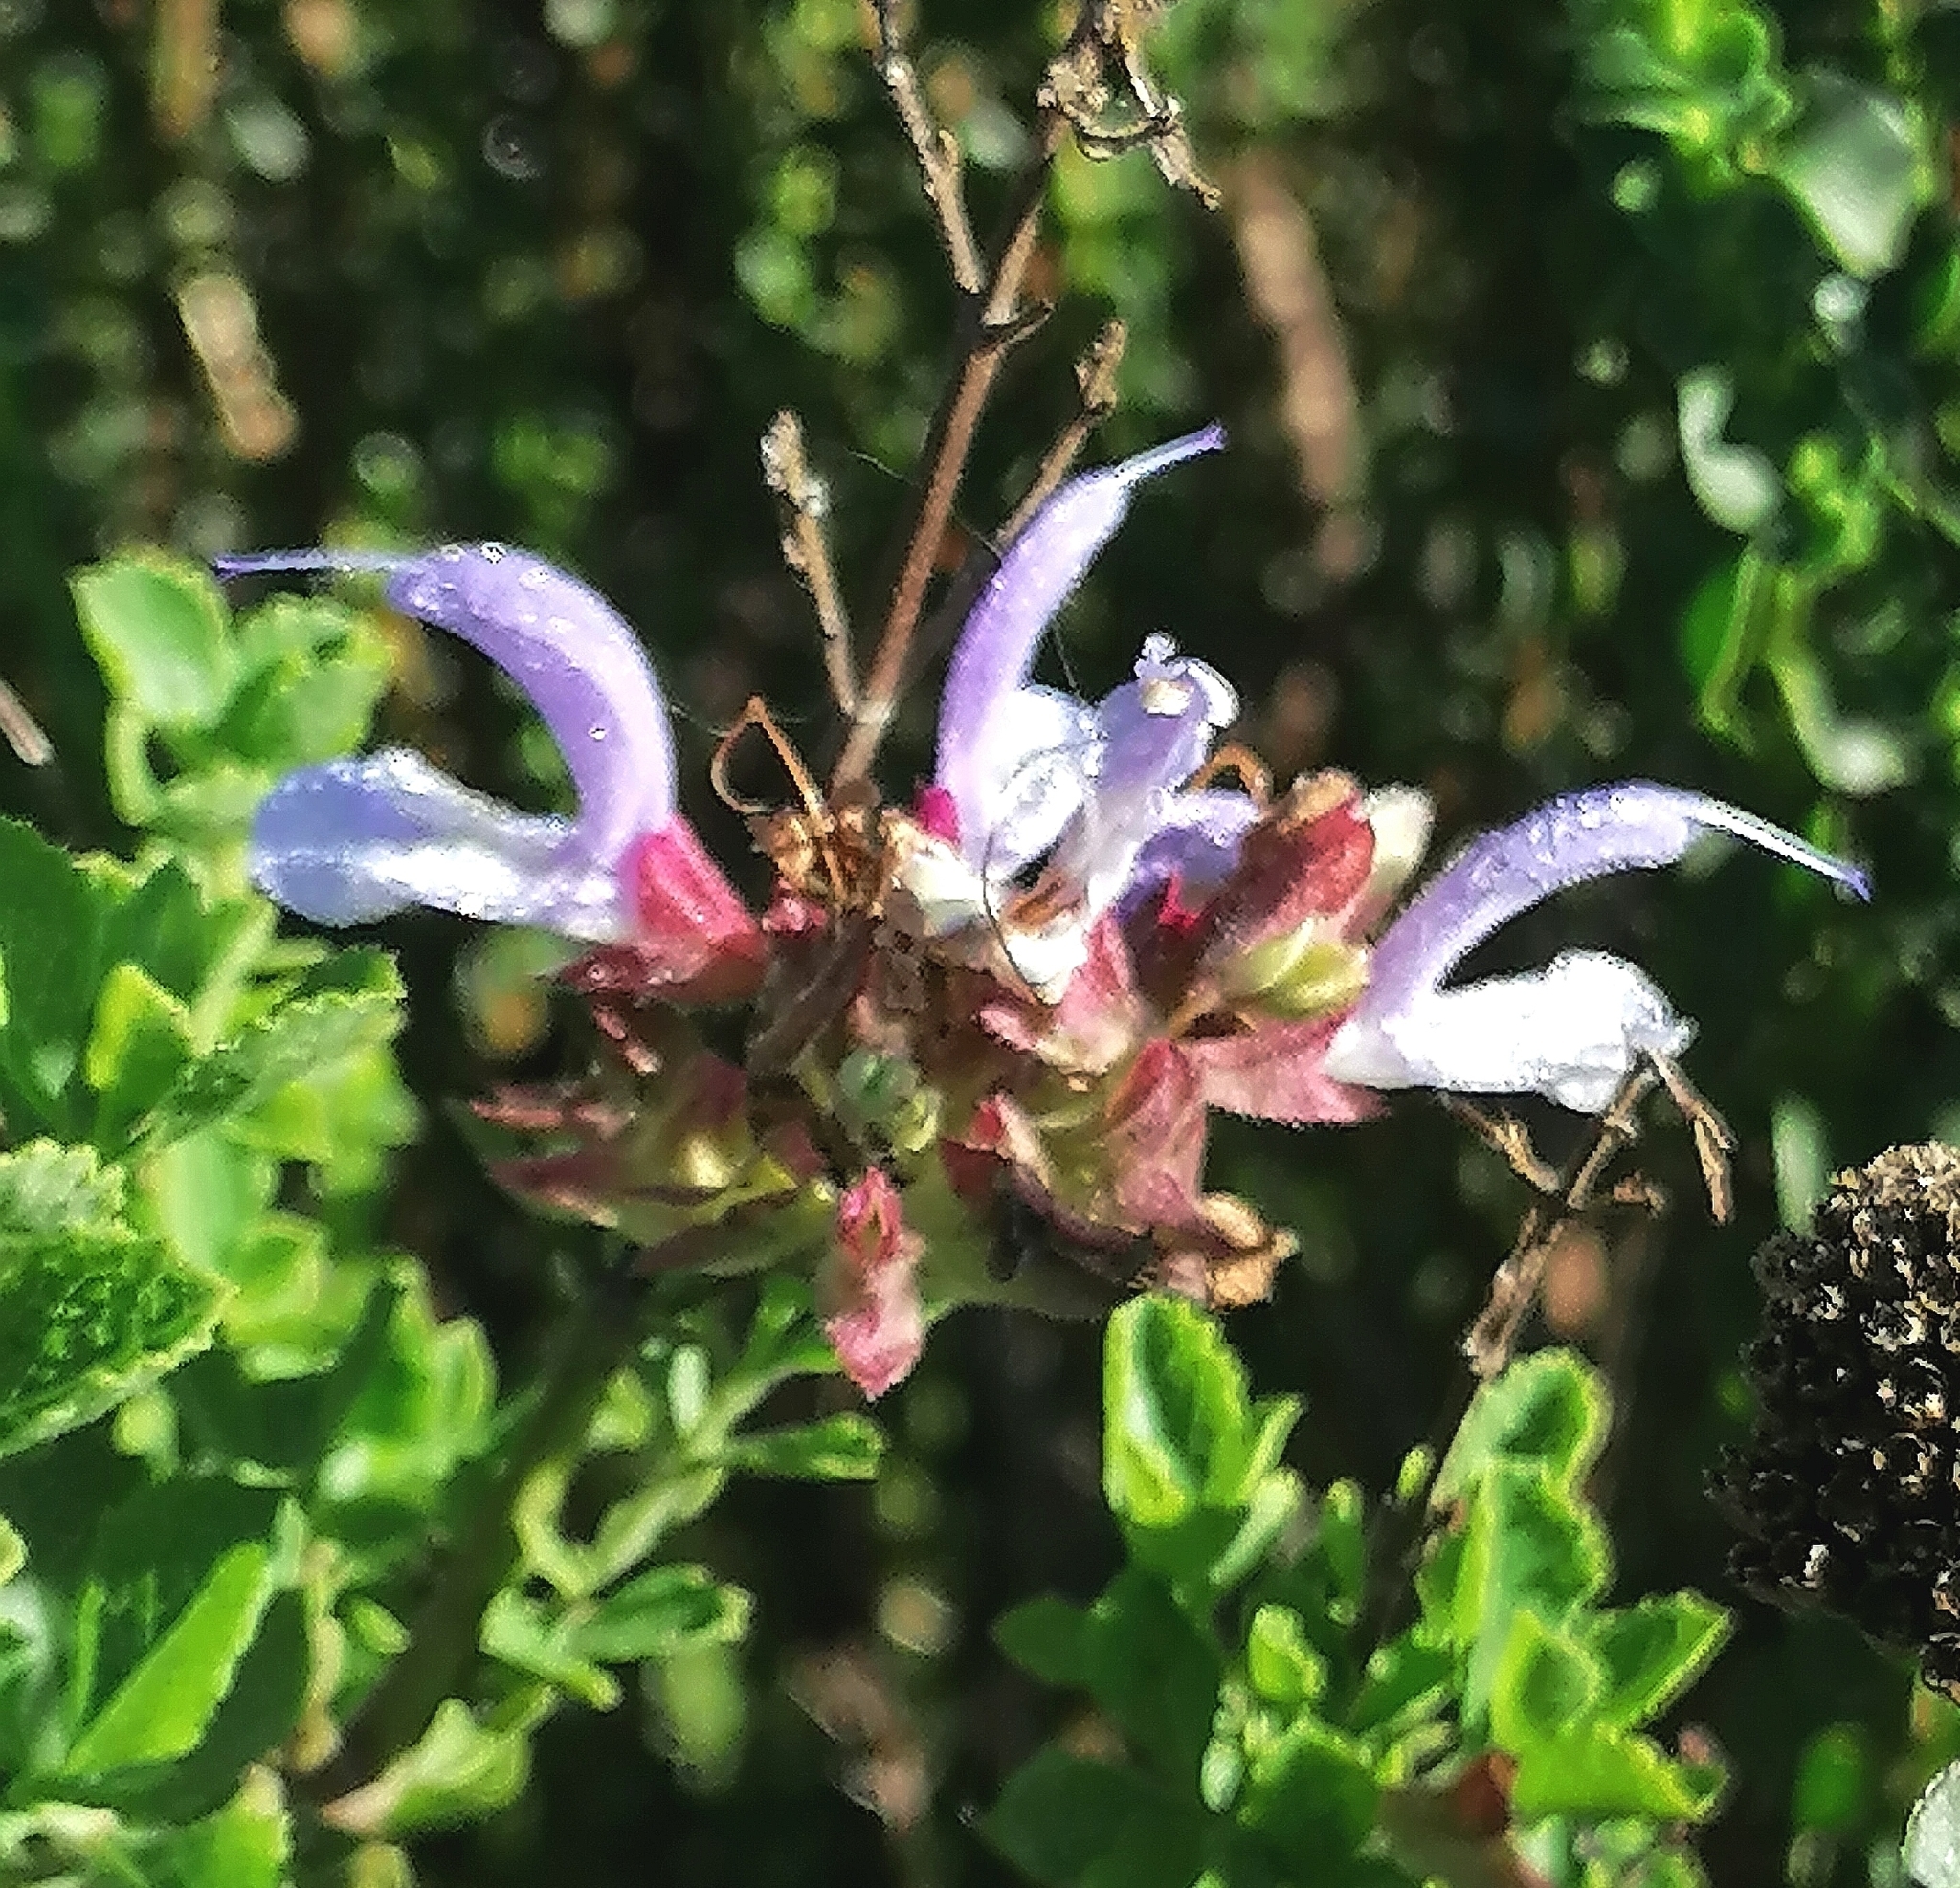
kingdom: Plantae
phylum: Tracheophyta
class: Magnoliopsida
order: Lamiales
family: Lamiaceae
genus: Salvia
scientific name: Salvia chamelaeagnea
